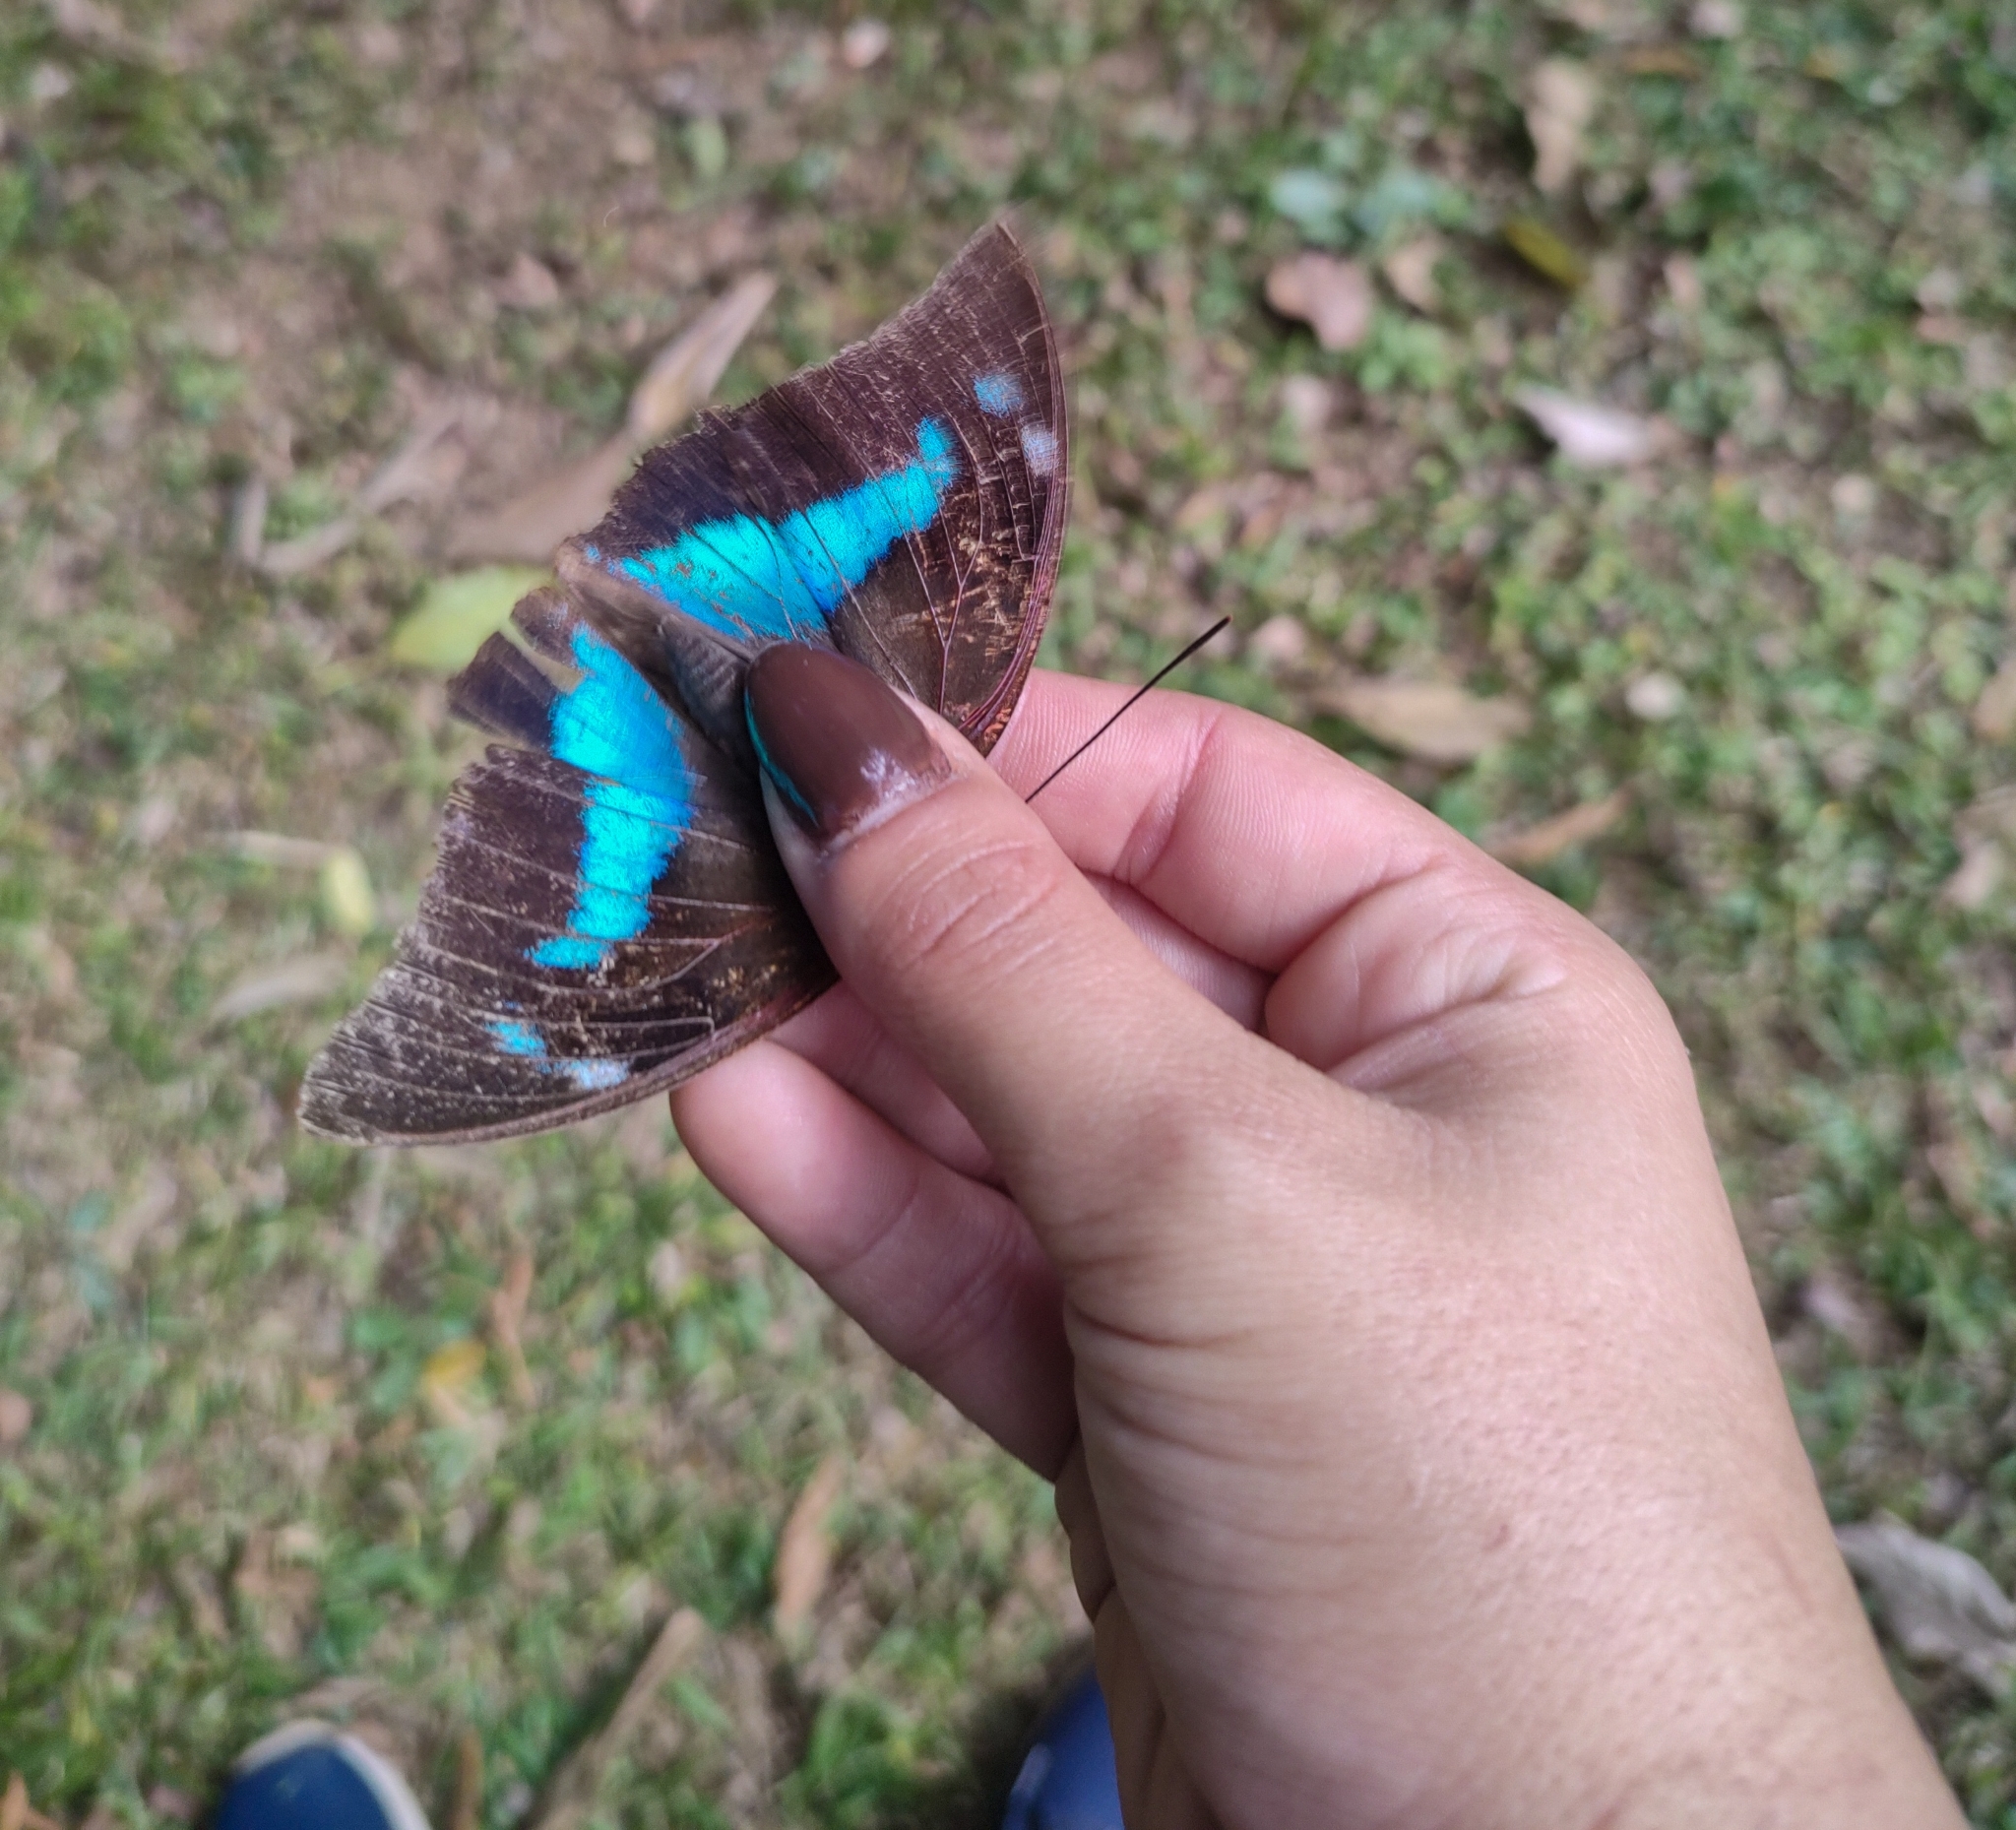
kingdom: Animalia
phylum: Arthropoda
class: Insecta
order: Lepidoptera
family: Nymphalidae
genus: Prepona
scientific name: Prepona demophoon
